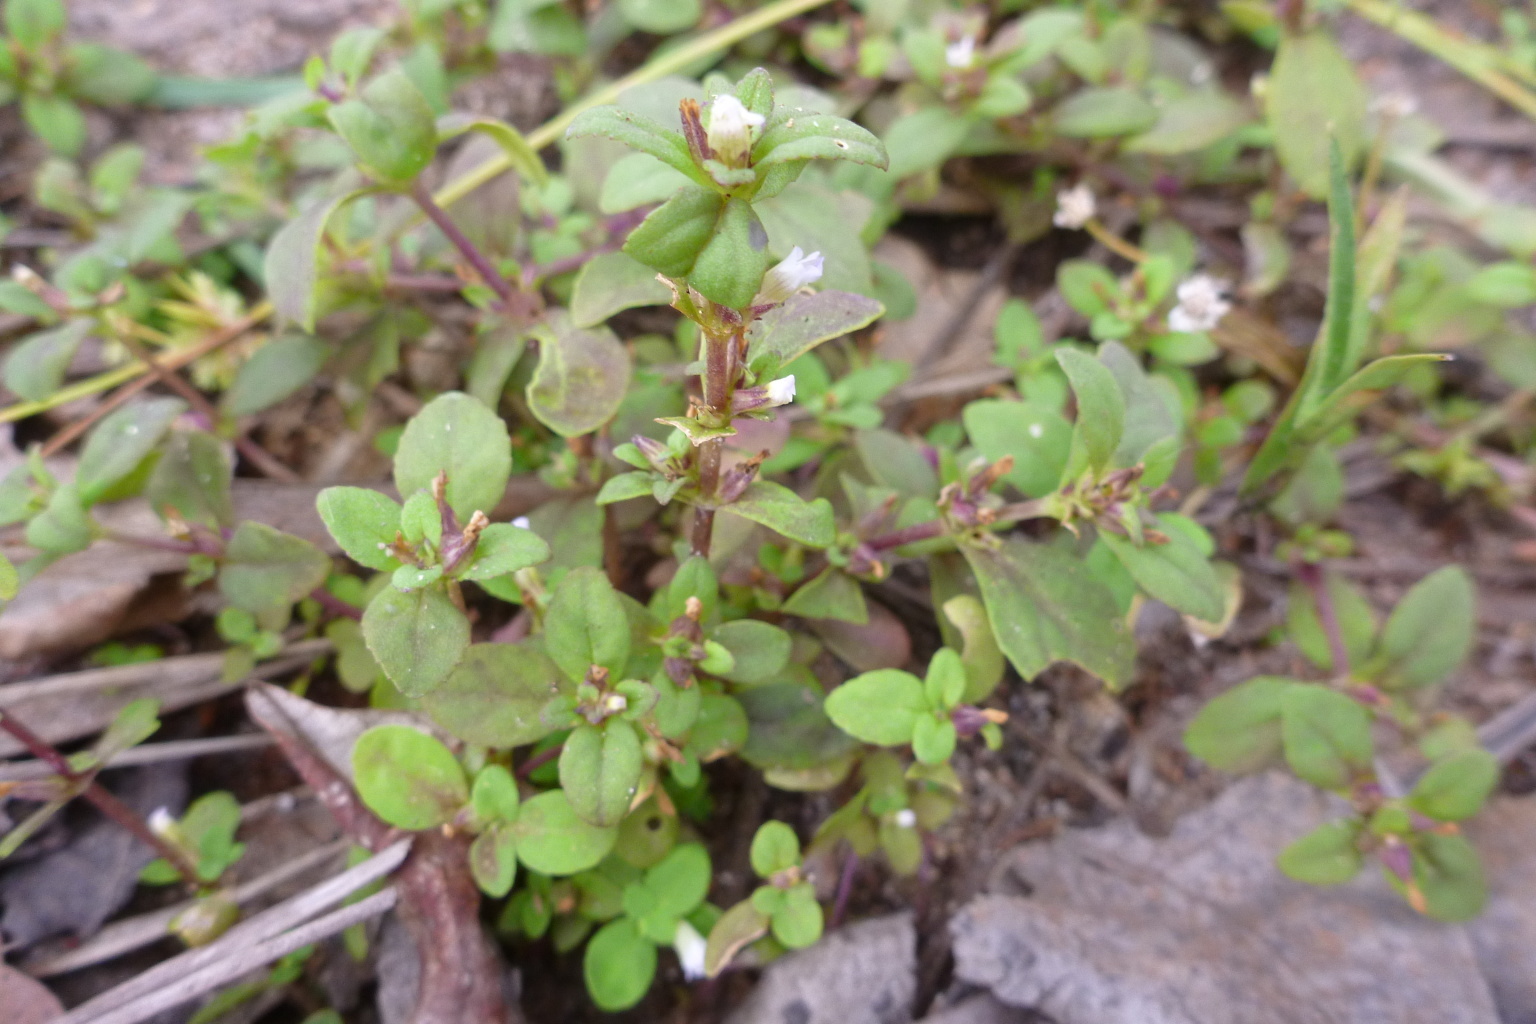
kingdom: Plantae
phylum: Tracheophyta
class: Magnoliopsida
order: Lamiales
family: Plantaginaceae
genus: Limnophila
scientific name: Limnophila fragrans
